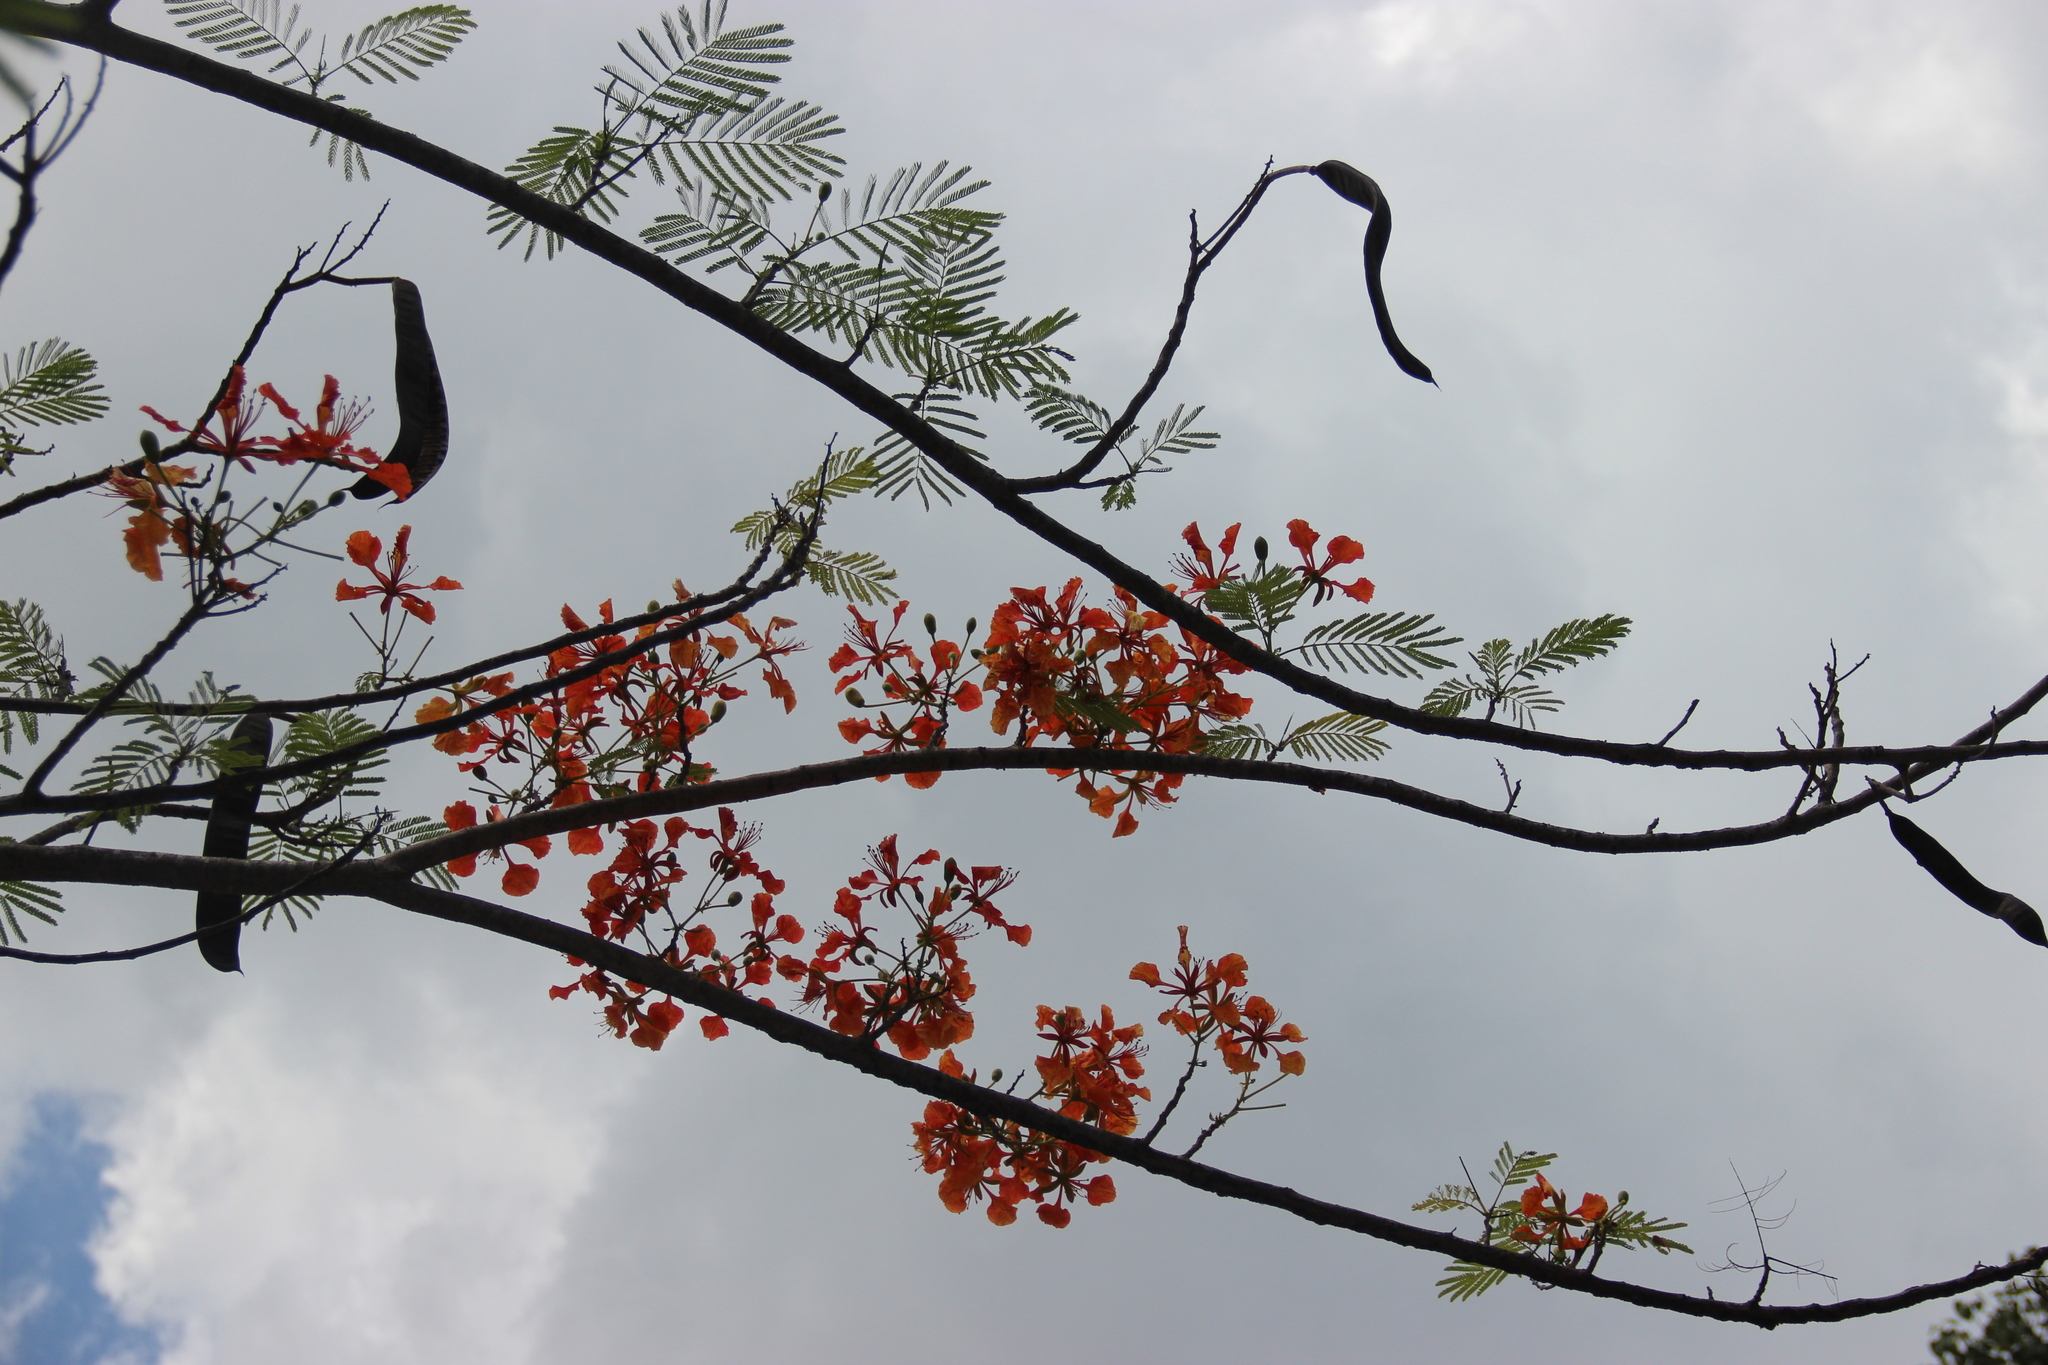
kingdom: Plantae
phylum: Tracheophyta
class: Magnoliopsida
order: Fabales
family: Fabaceae
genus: Delonix
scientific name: Delonix regia
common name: Royal poinciana
